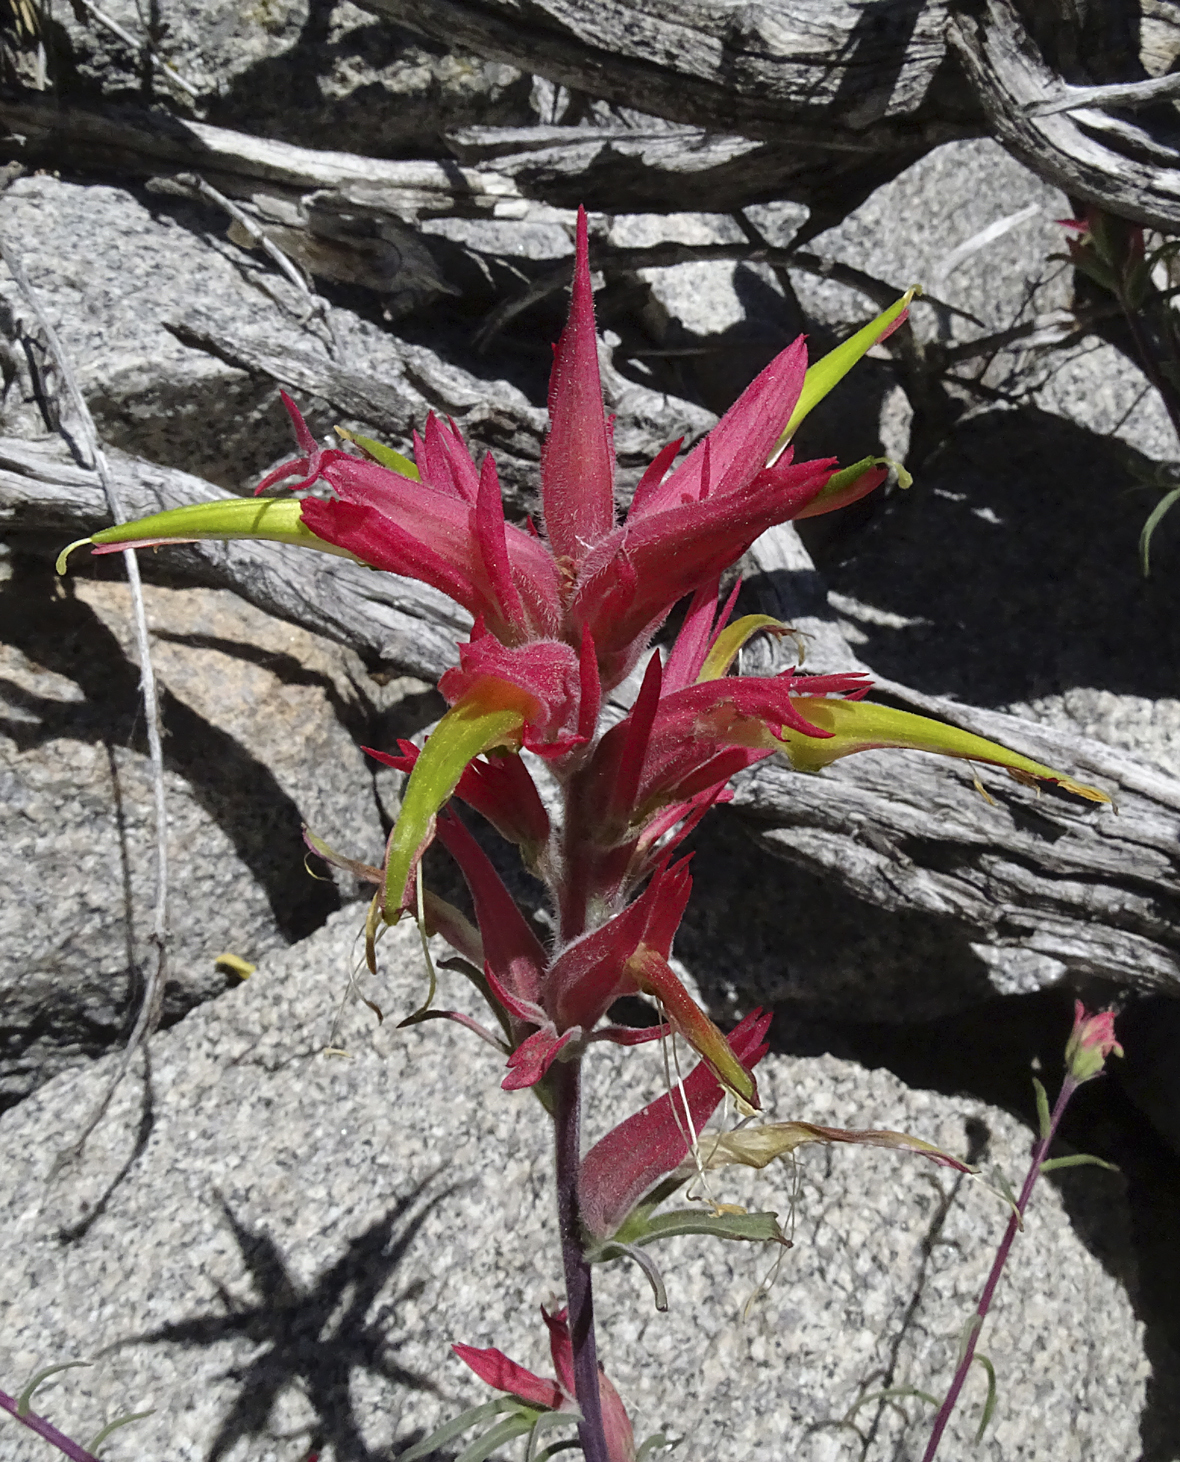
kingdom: Plantae
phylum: Tracheophyta
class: Magnoliopsida
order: Lamiales
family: Orobanchaceae
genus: Castilleja
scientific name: Castilleja linariifolia
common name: Wyoming paintbrush
